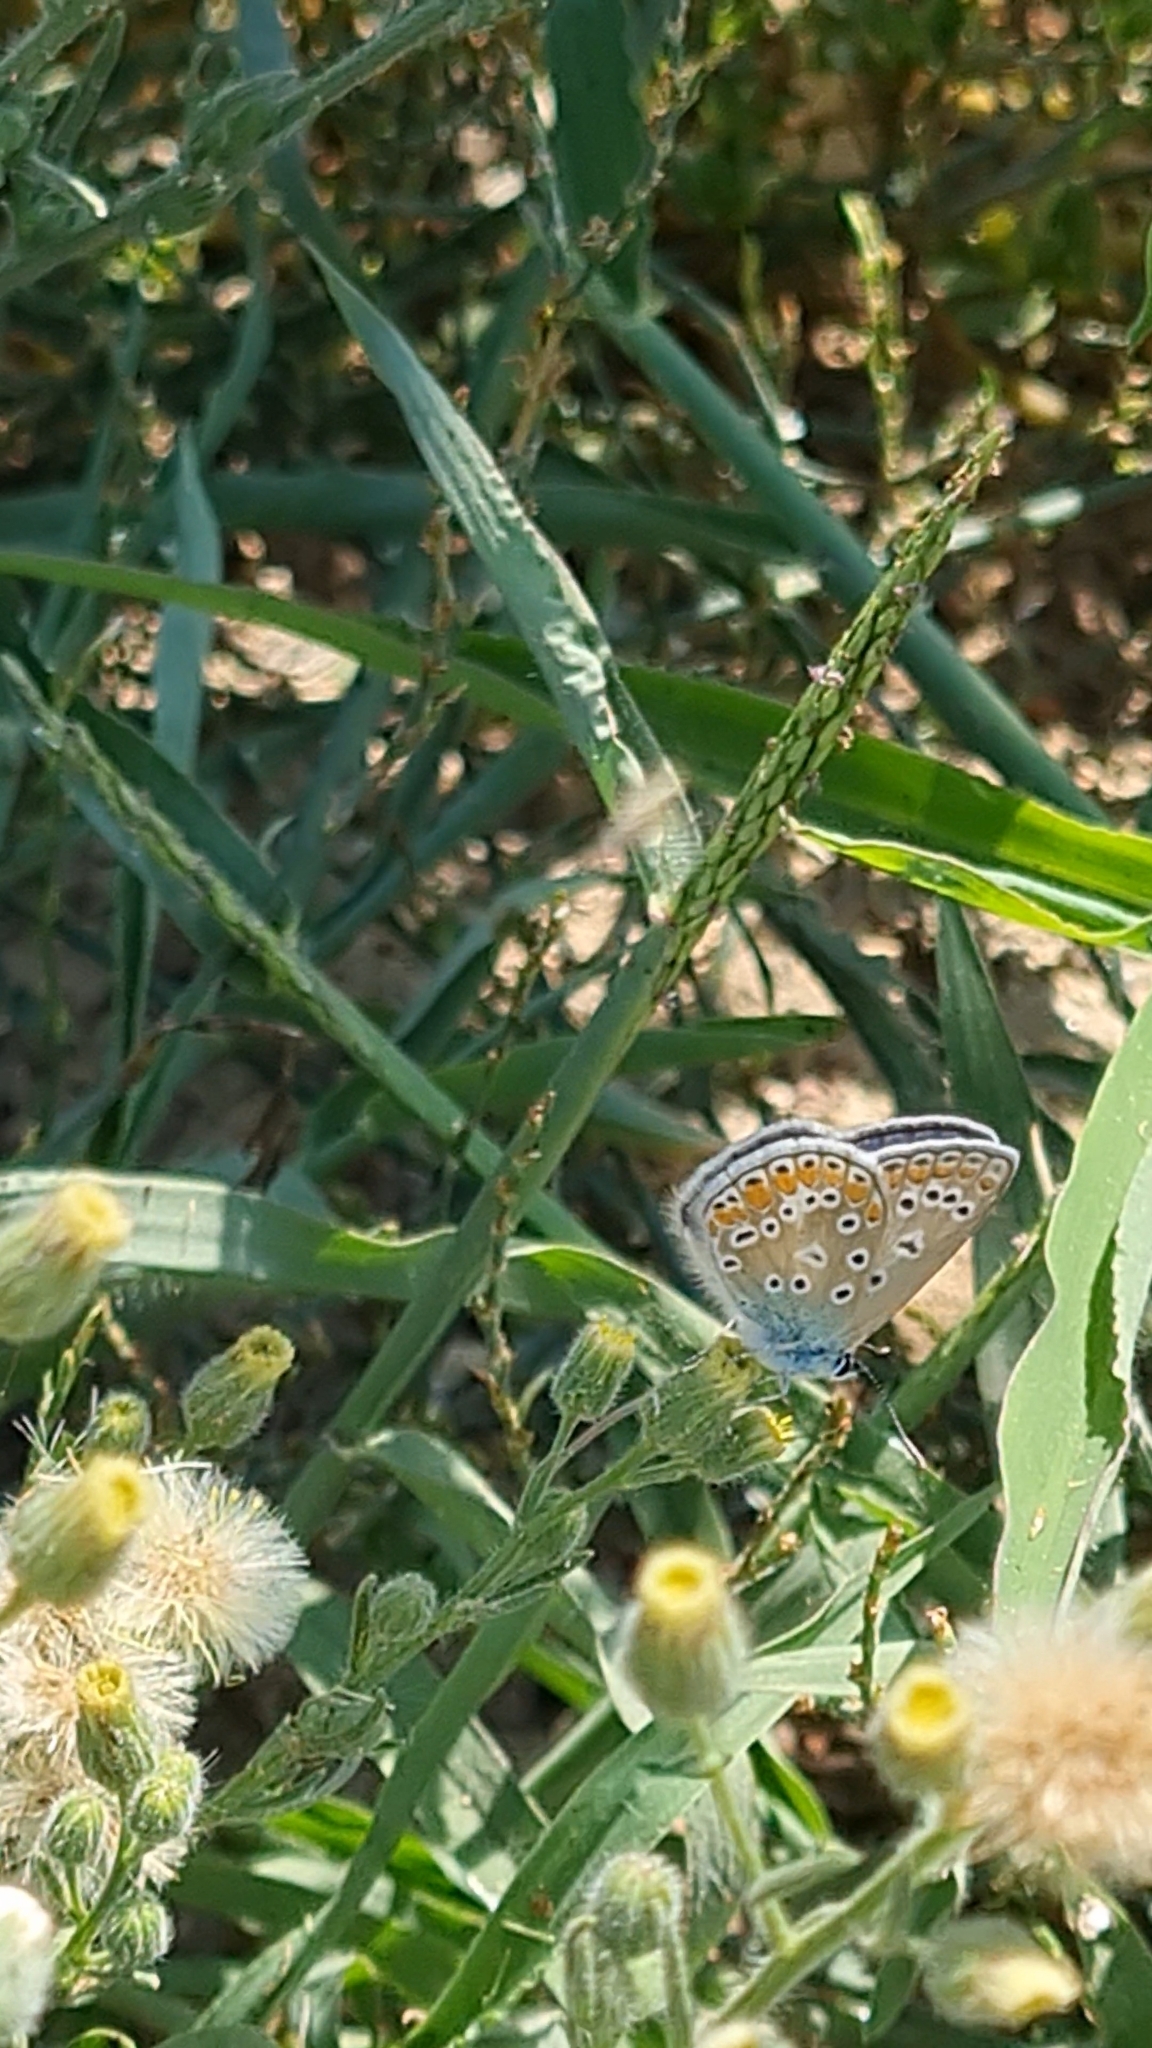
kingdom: Animalia
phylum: Arthropoda
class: Insecta
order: Lepidoptera
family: Lycaenidae
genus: Polyommatus
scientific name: Polyommatus icarus
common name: Common blue
